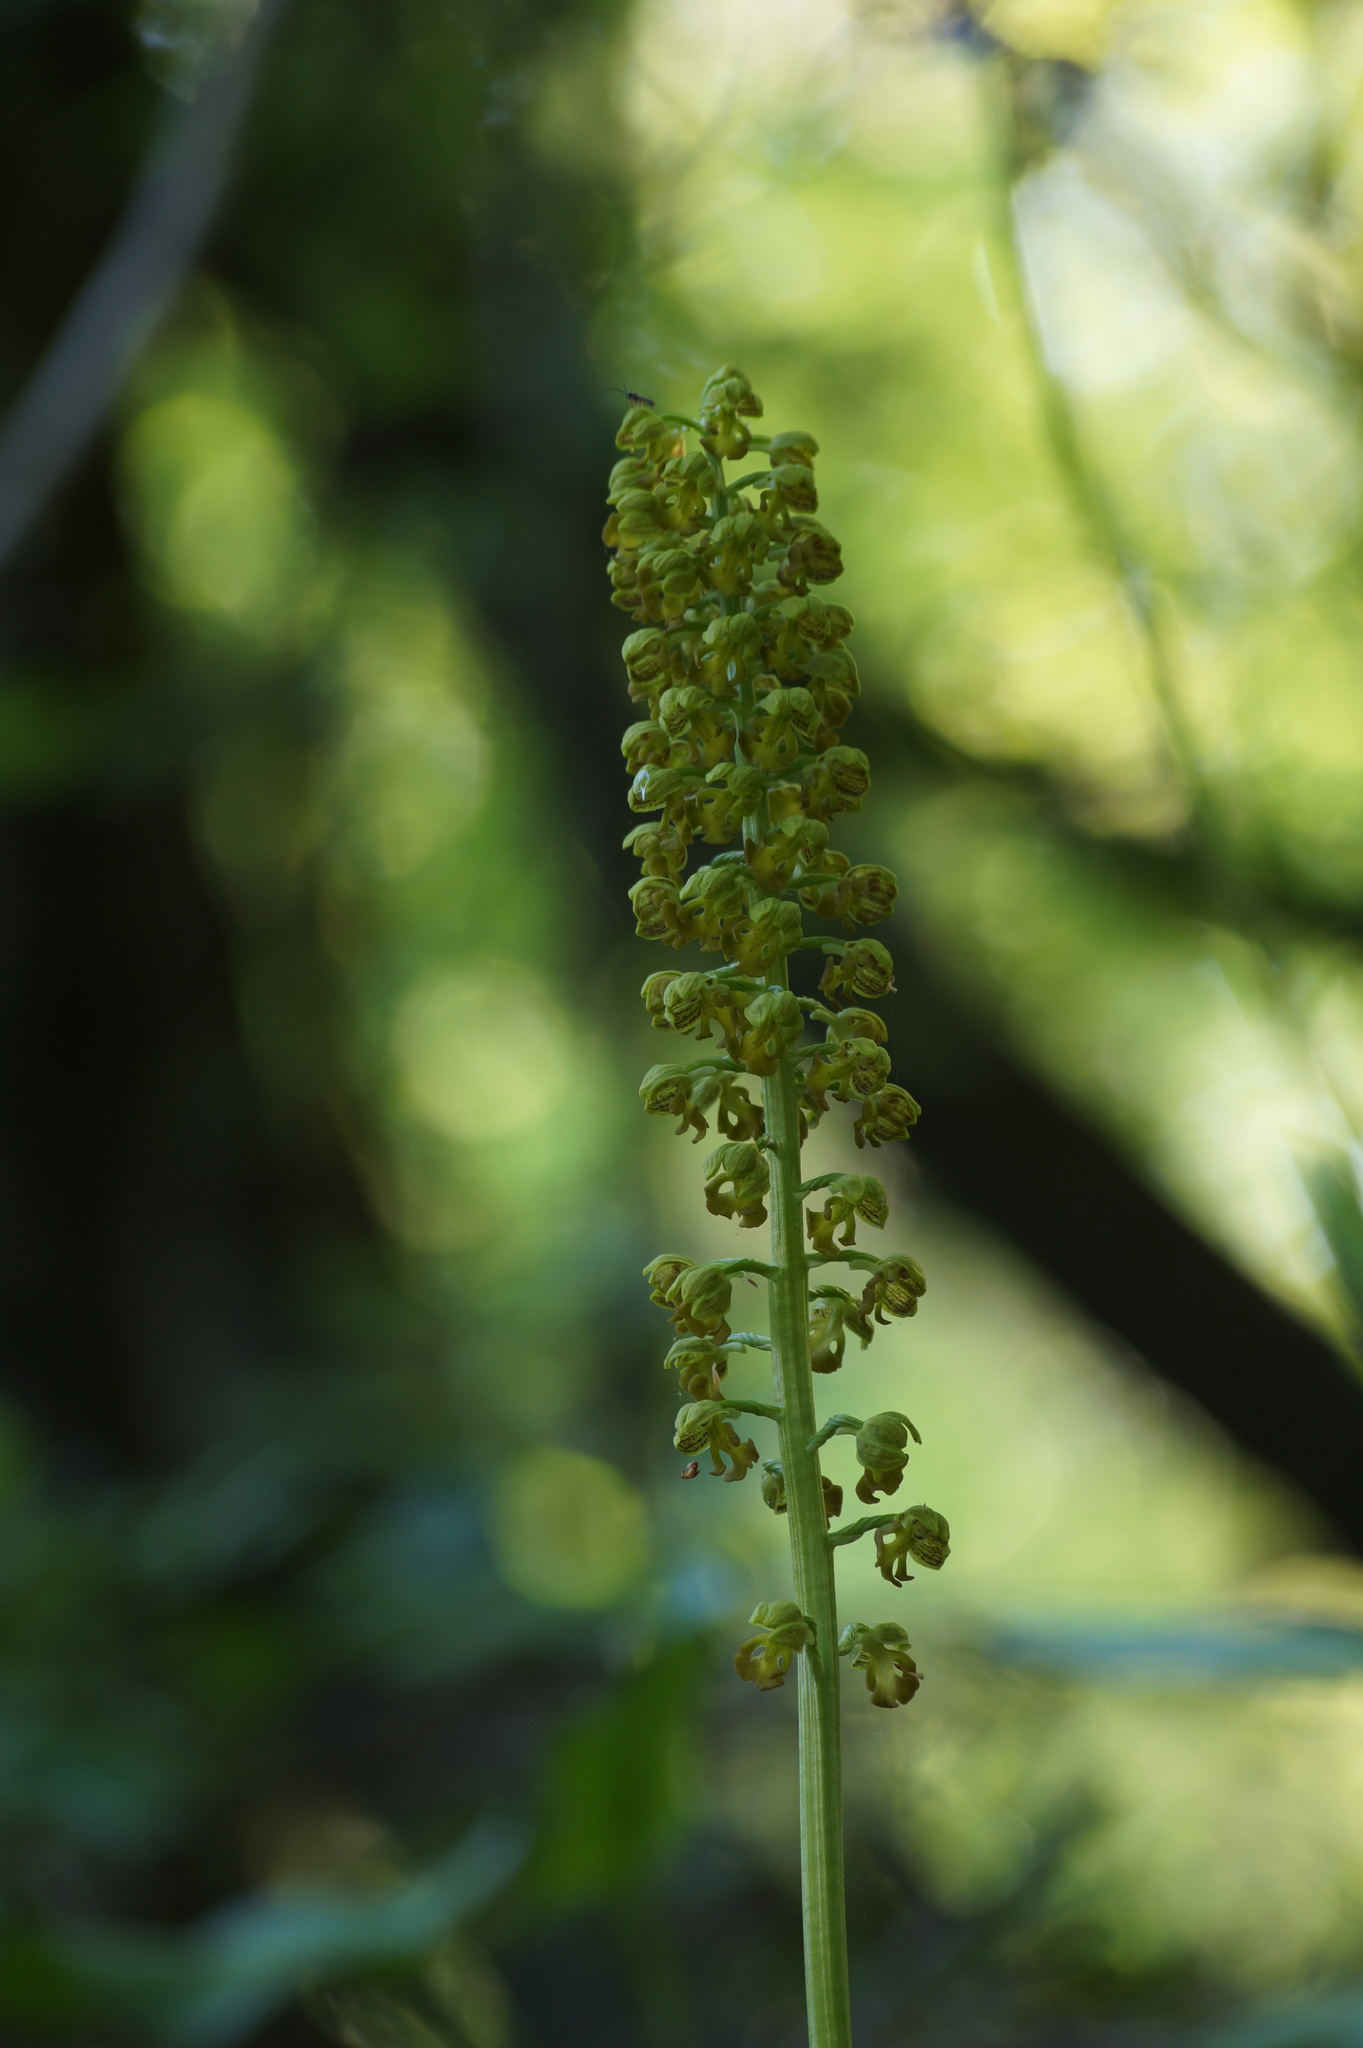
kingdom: Plantae
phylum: Tracheophyta
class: Liliopsida
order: Asparagales
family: Orchidaceae
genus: Orchis
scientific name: Orchis punctulata
